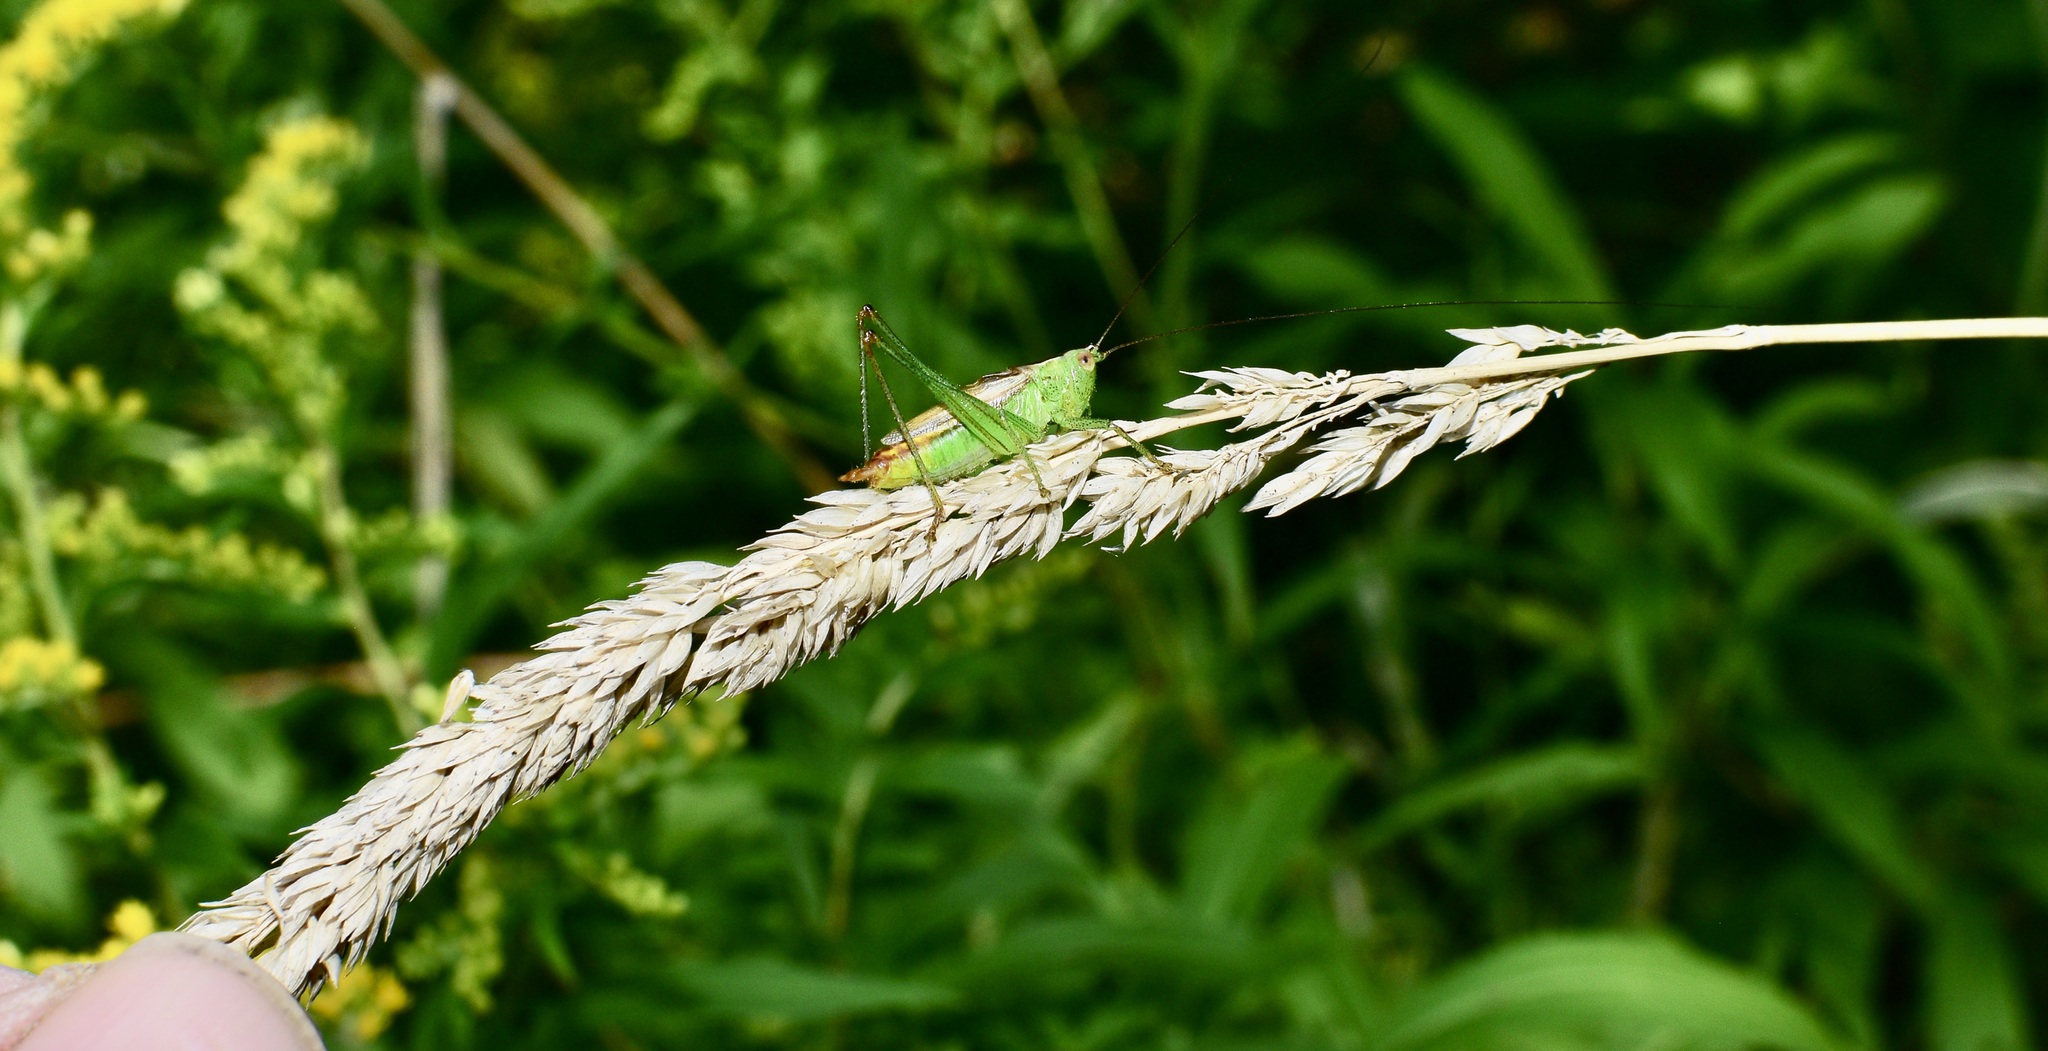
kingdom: Animalia
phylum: Arthropoda
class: Insecta
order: Orthoptera
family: Tettigoniidae
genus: Conocephalus
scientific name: Conocephalus brevipennis
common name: Short-winged meadow katydid
